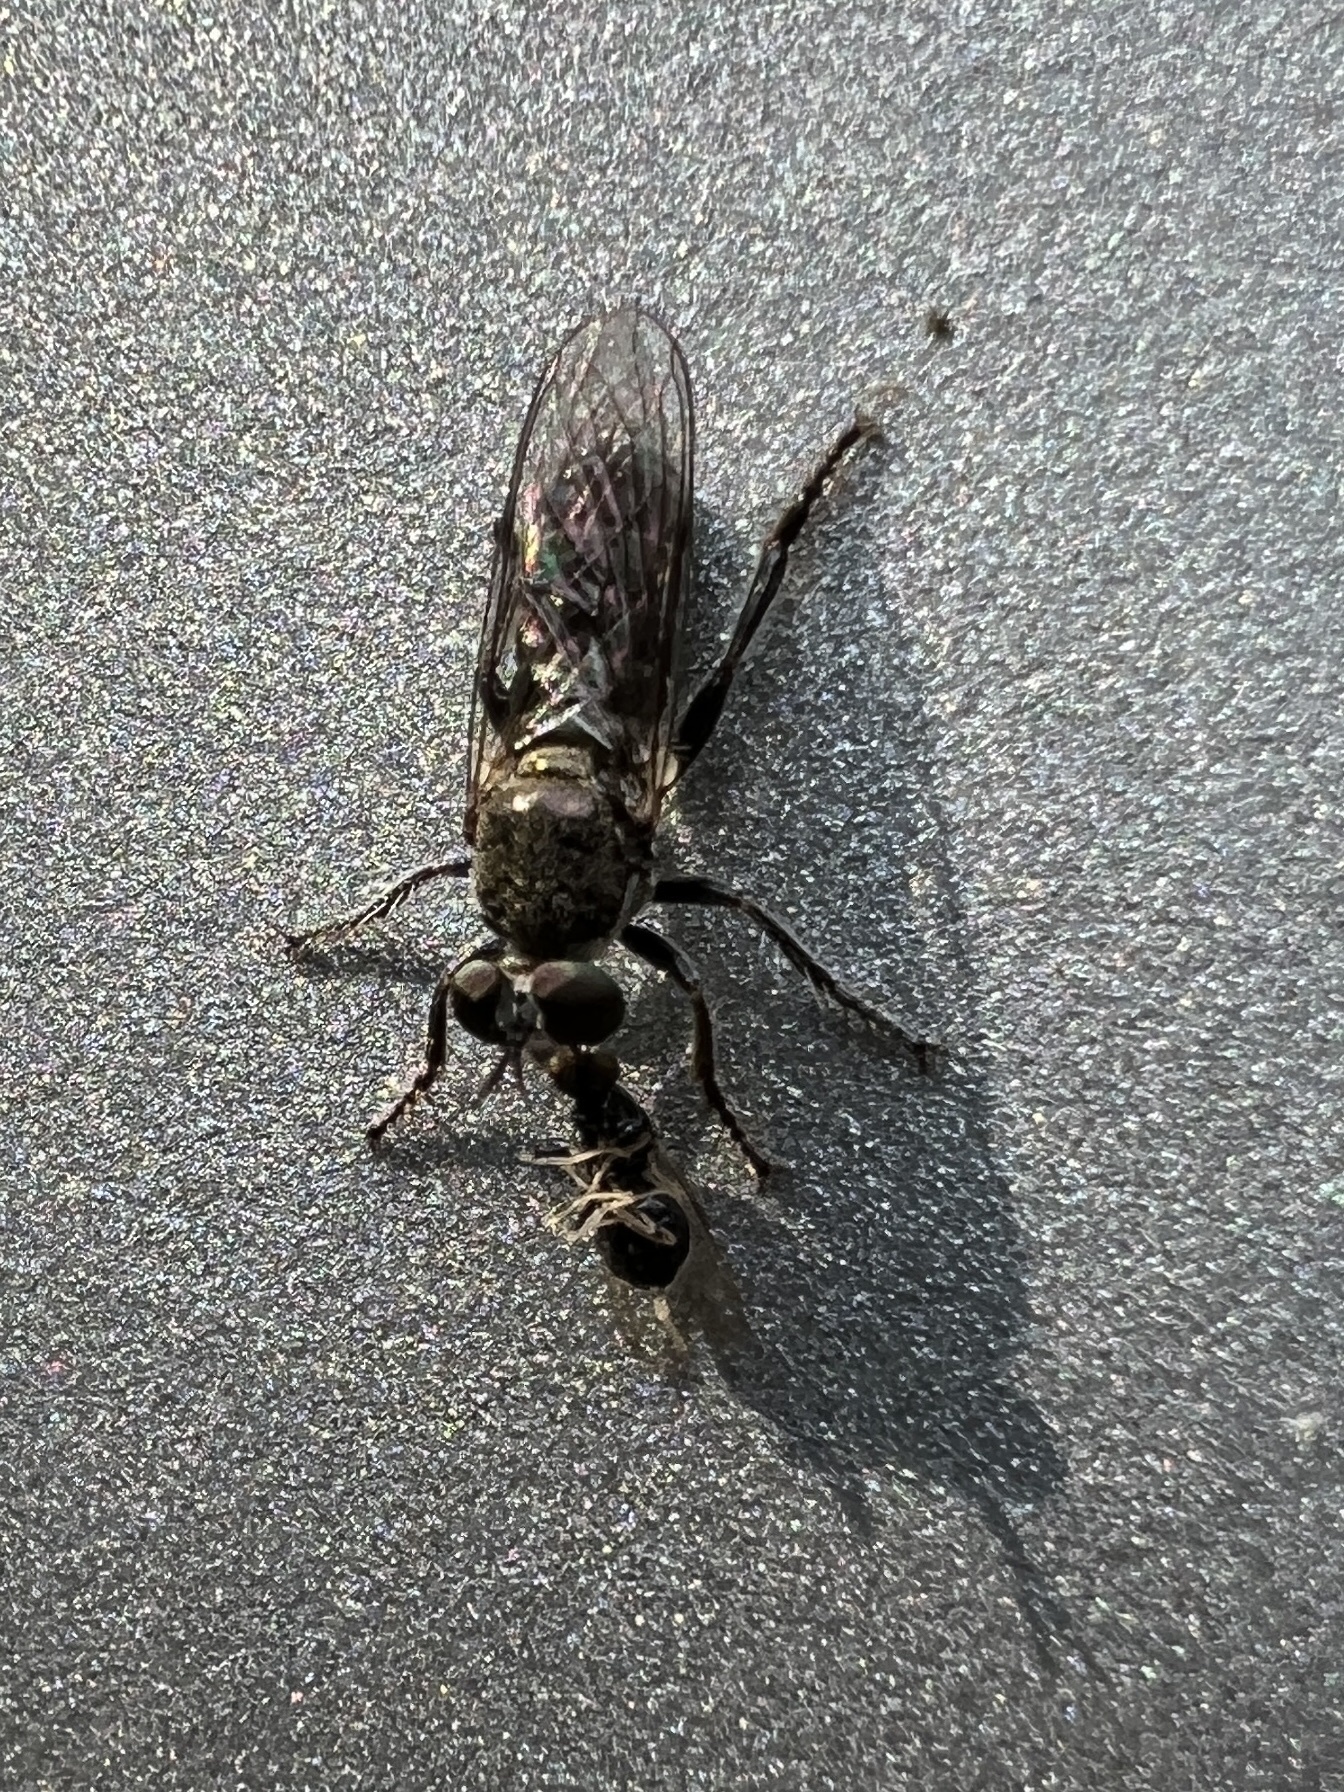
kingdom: Animalia
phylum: Arthropoda
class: Insecta
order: Diptera
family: Asilidae
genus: Atomosia
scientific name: Atomosia puella
